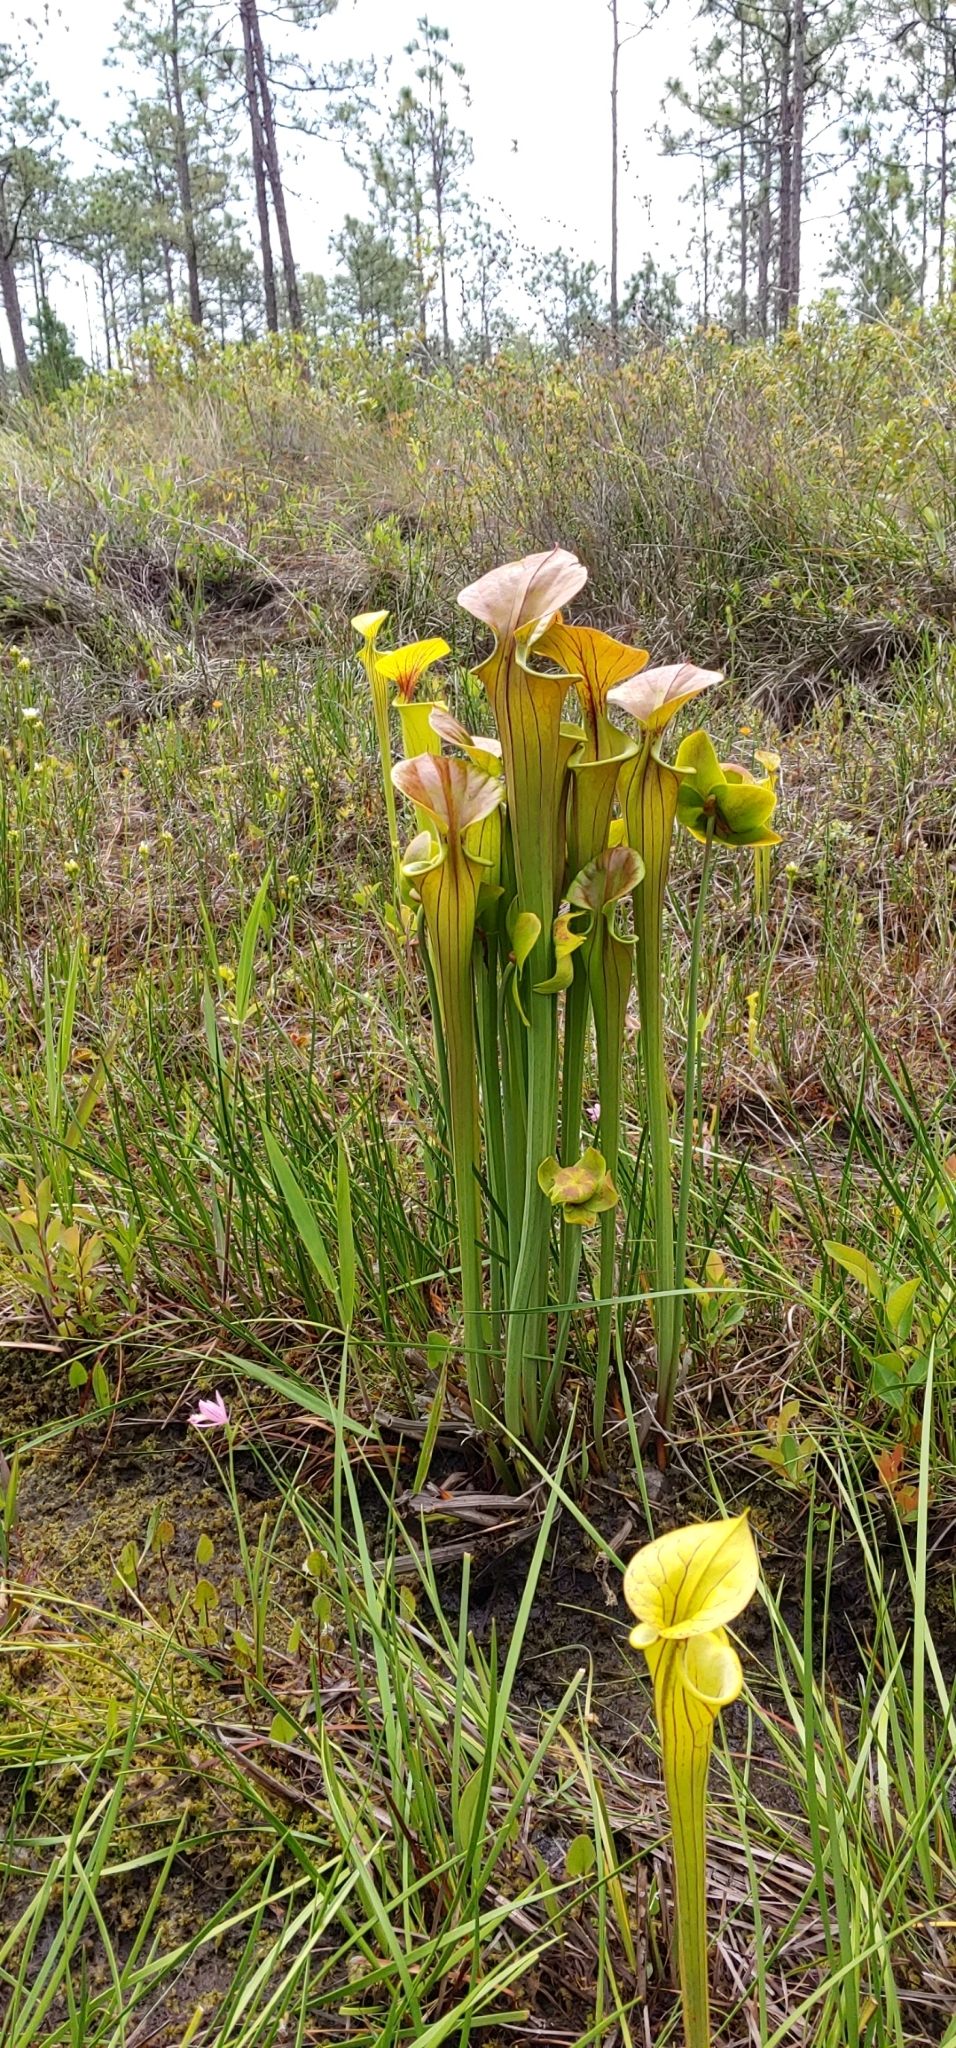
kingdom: Plantae
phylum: Tracheophyta
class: Magnoliopsida
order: Ericales
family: Sarraceniaceae
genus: Sarracenia
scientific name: Sarracenia flava
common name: Trumpets
